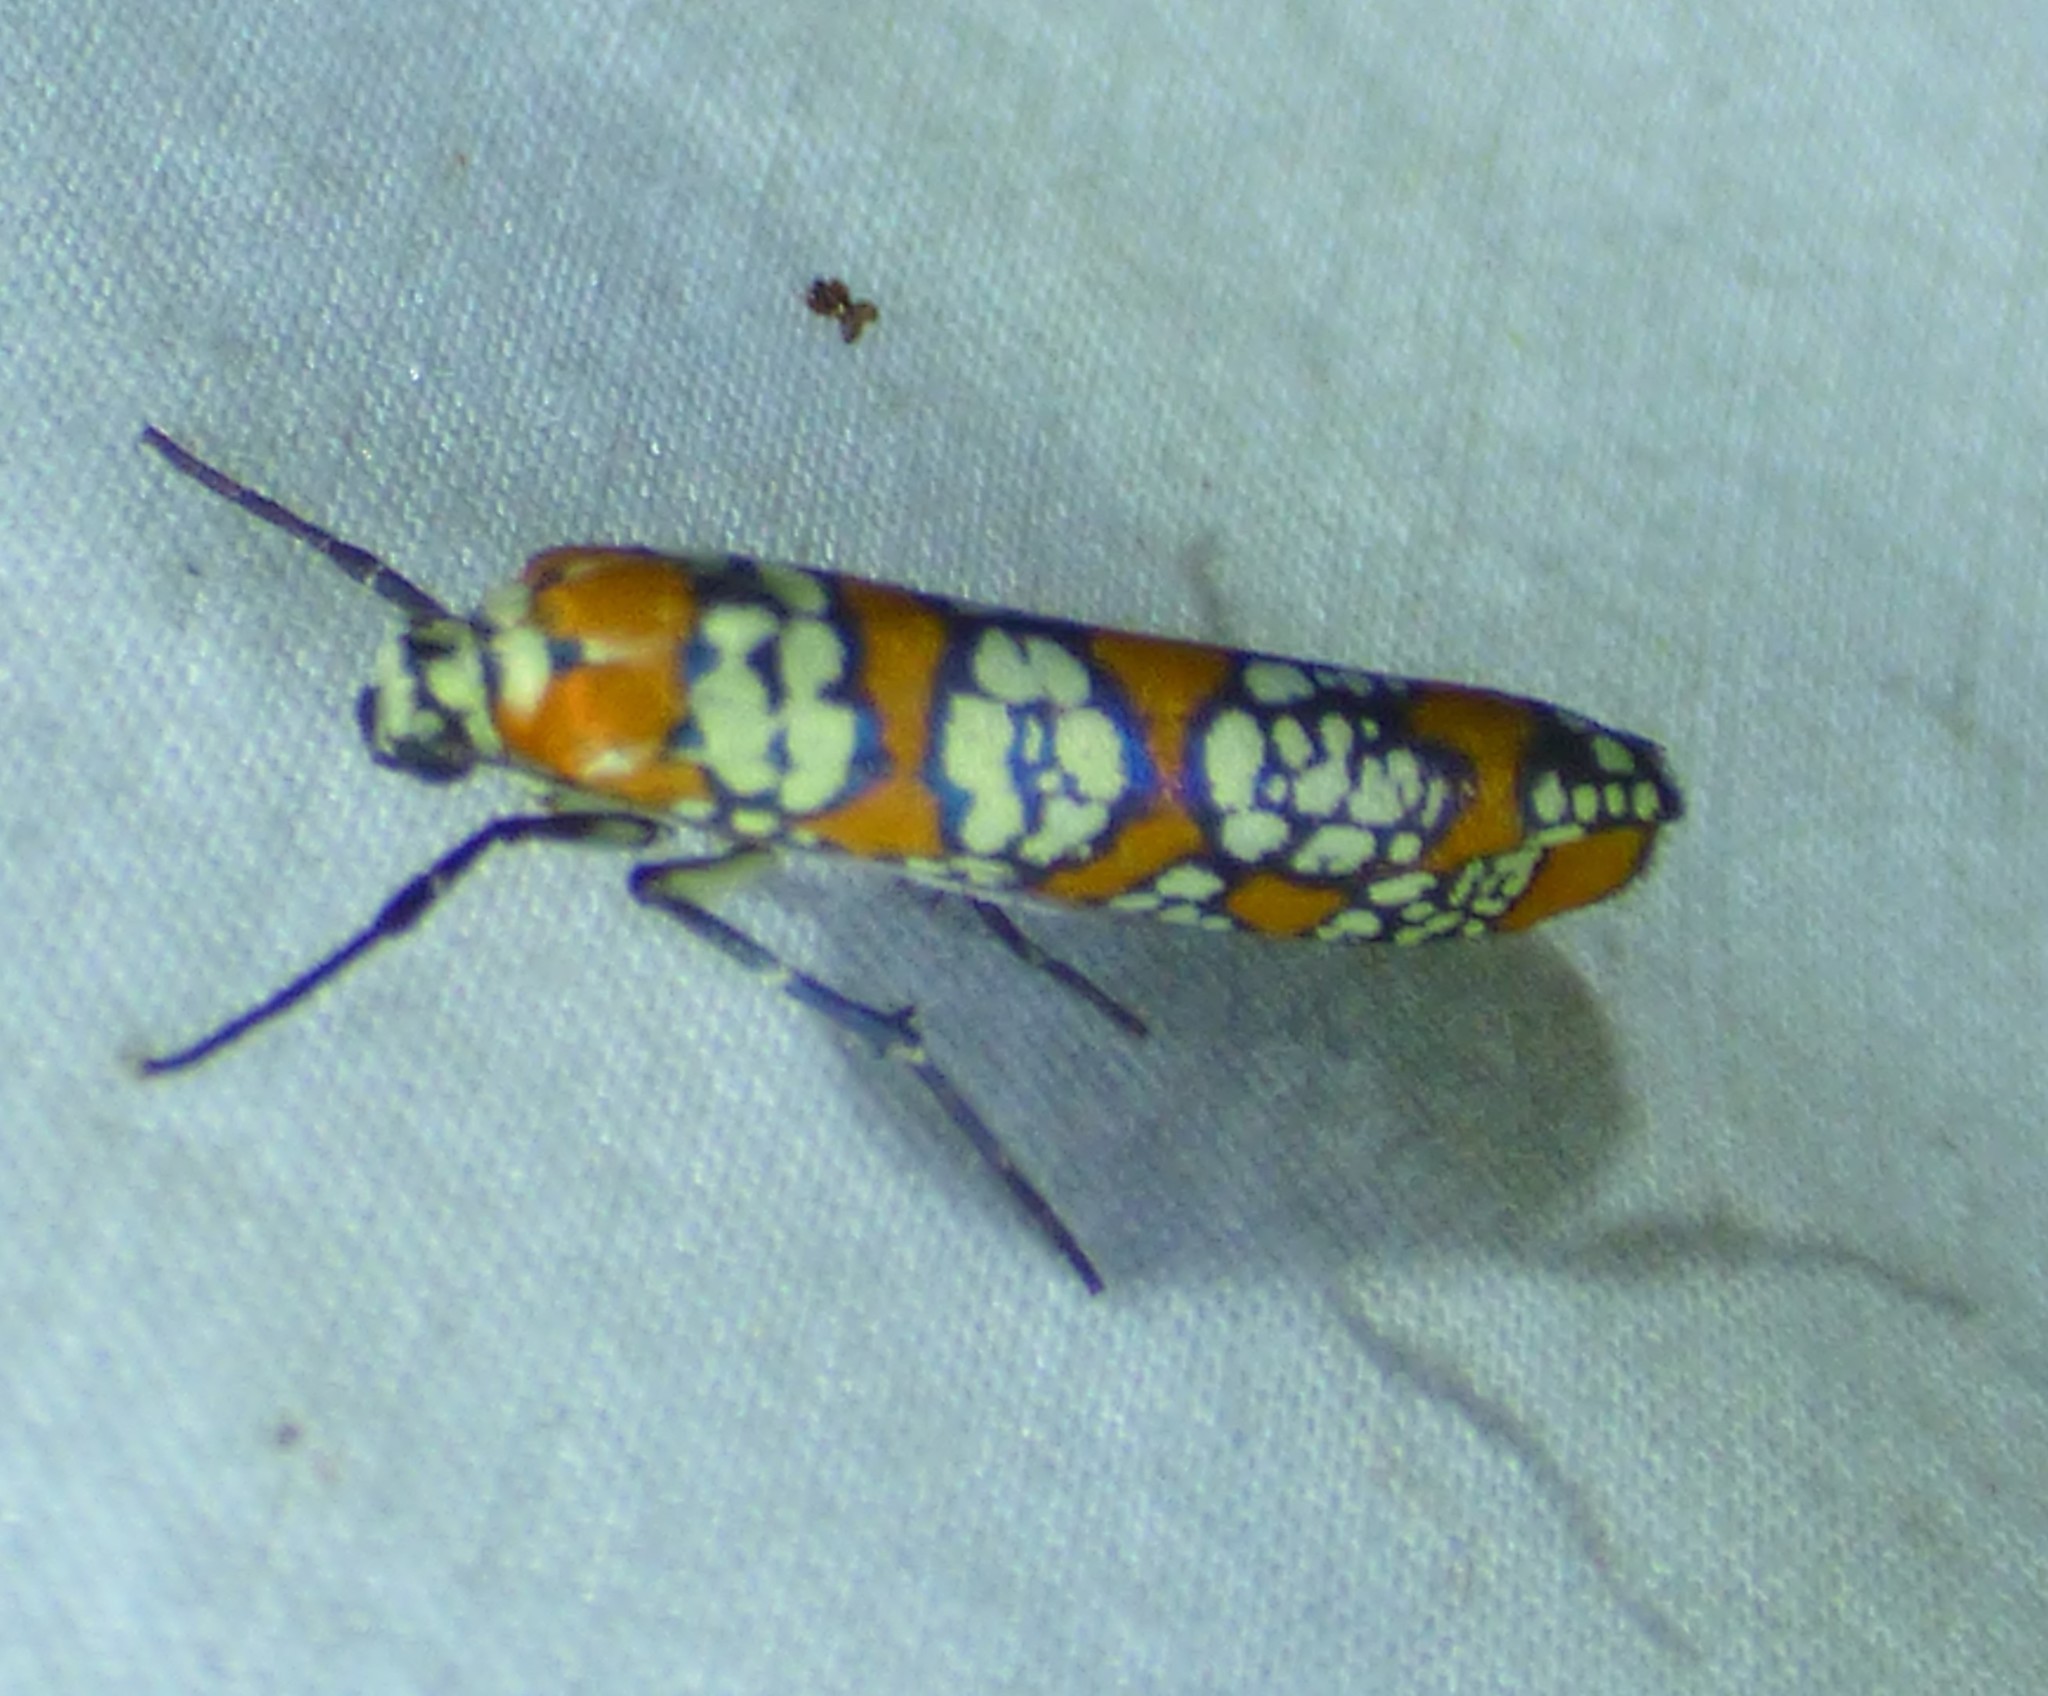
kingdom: Animalia
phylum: Arthropoda
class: Insecta
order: Lepidoptera
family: Attevidae
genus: Atteva
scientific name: Atteva punctella
